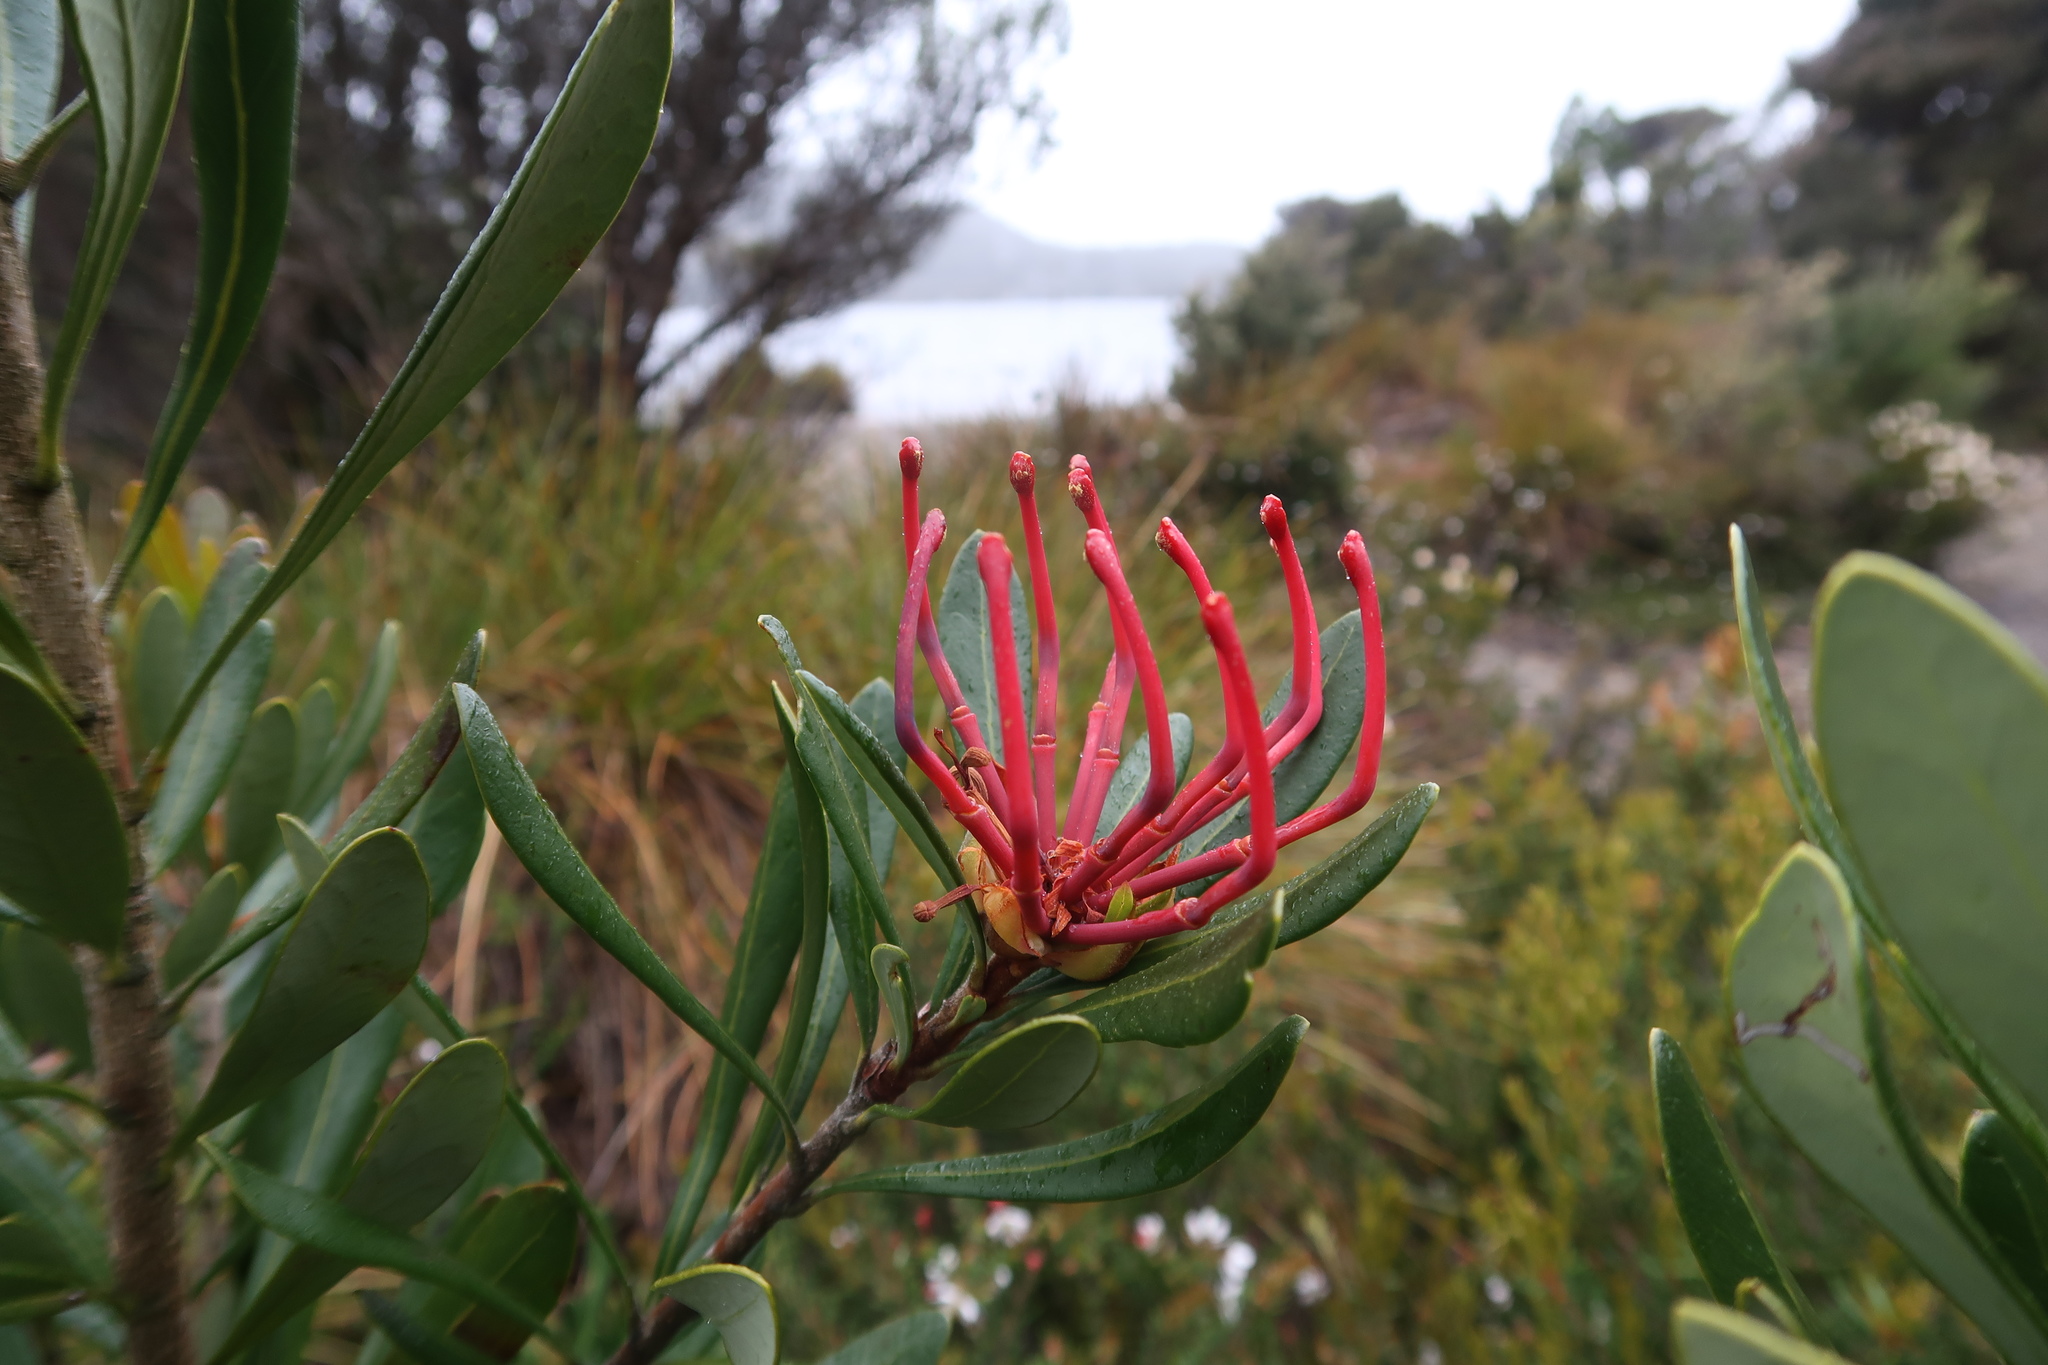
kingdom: Plantae
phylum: Tracheophyta
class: Magnoliopsida
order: Proteales
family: Proteaceae
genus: Telopea
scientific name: Telopea truncata
